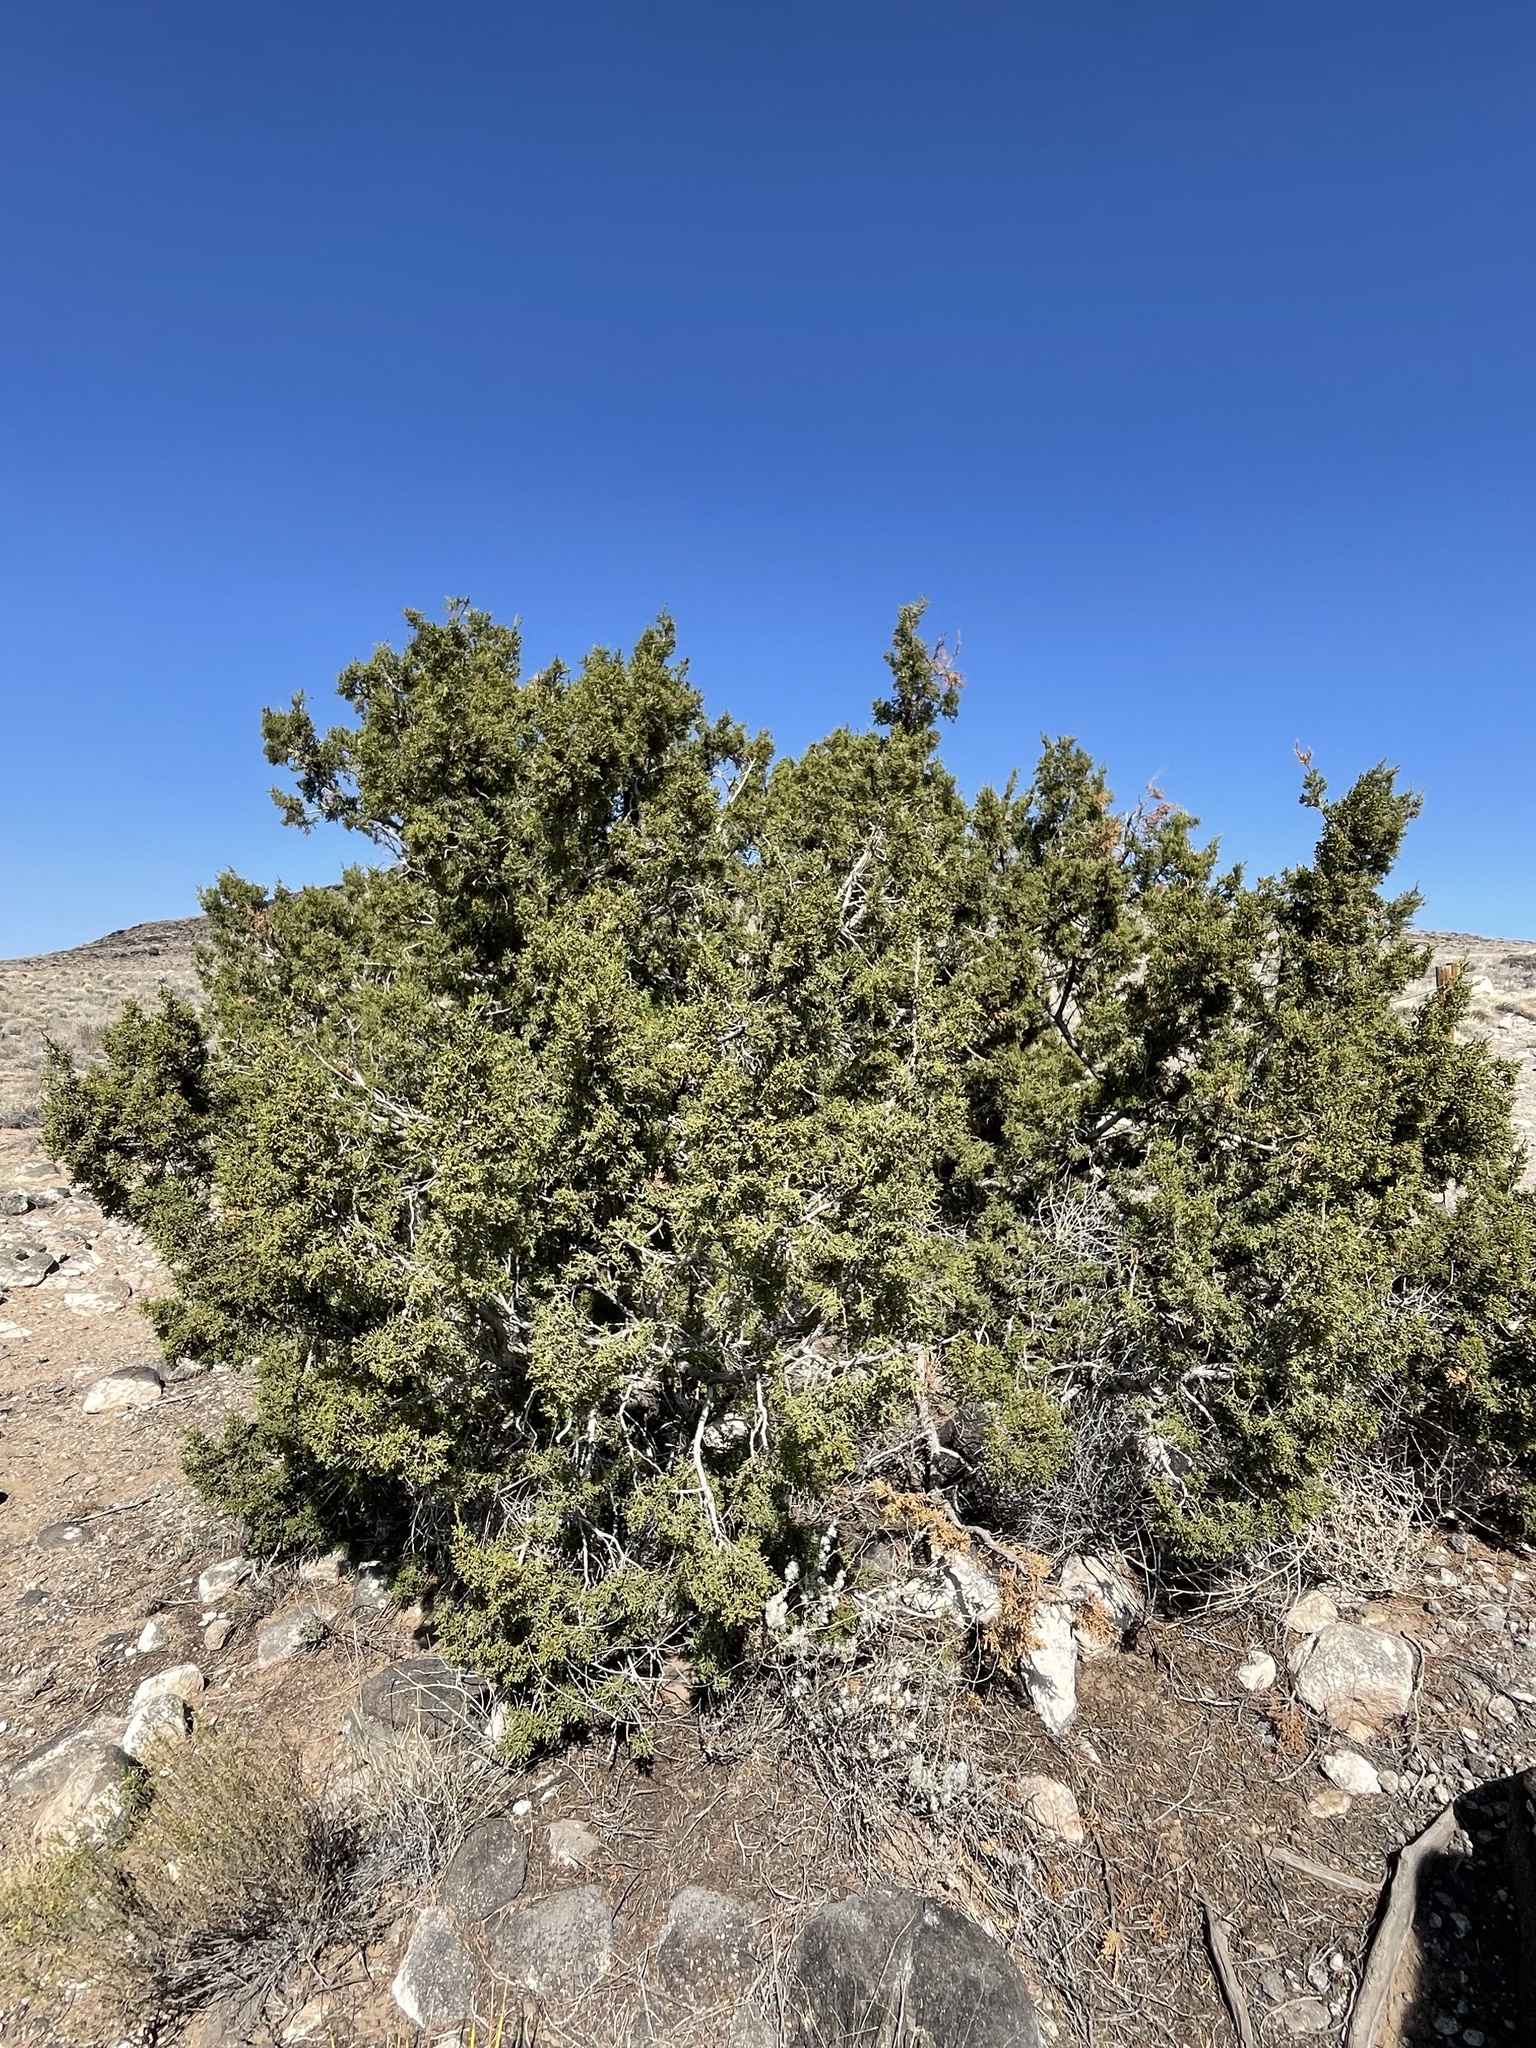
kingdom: Plantae
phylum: Tracheophyta
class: Pinopsida
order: Pinales
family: Cupressaceae
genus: Juniperus
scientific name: Juniperus monosperma
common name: One-seed juniper
